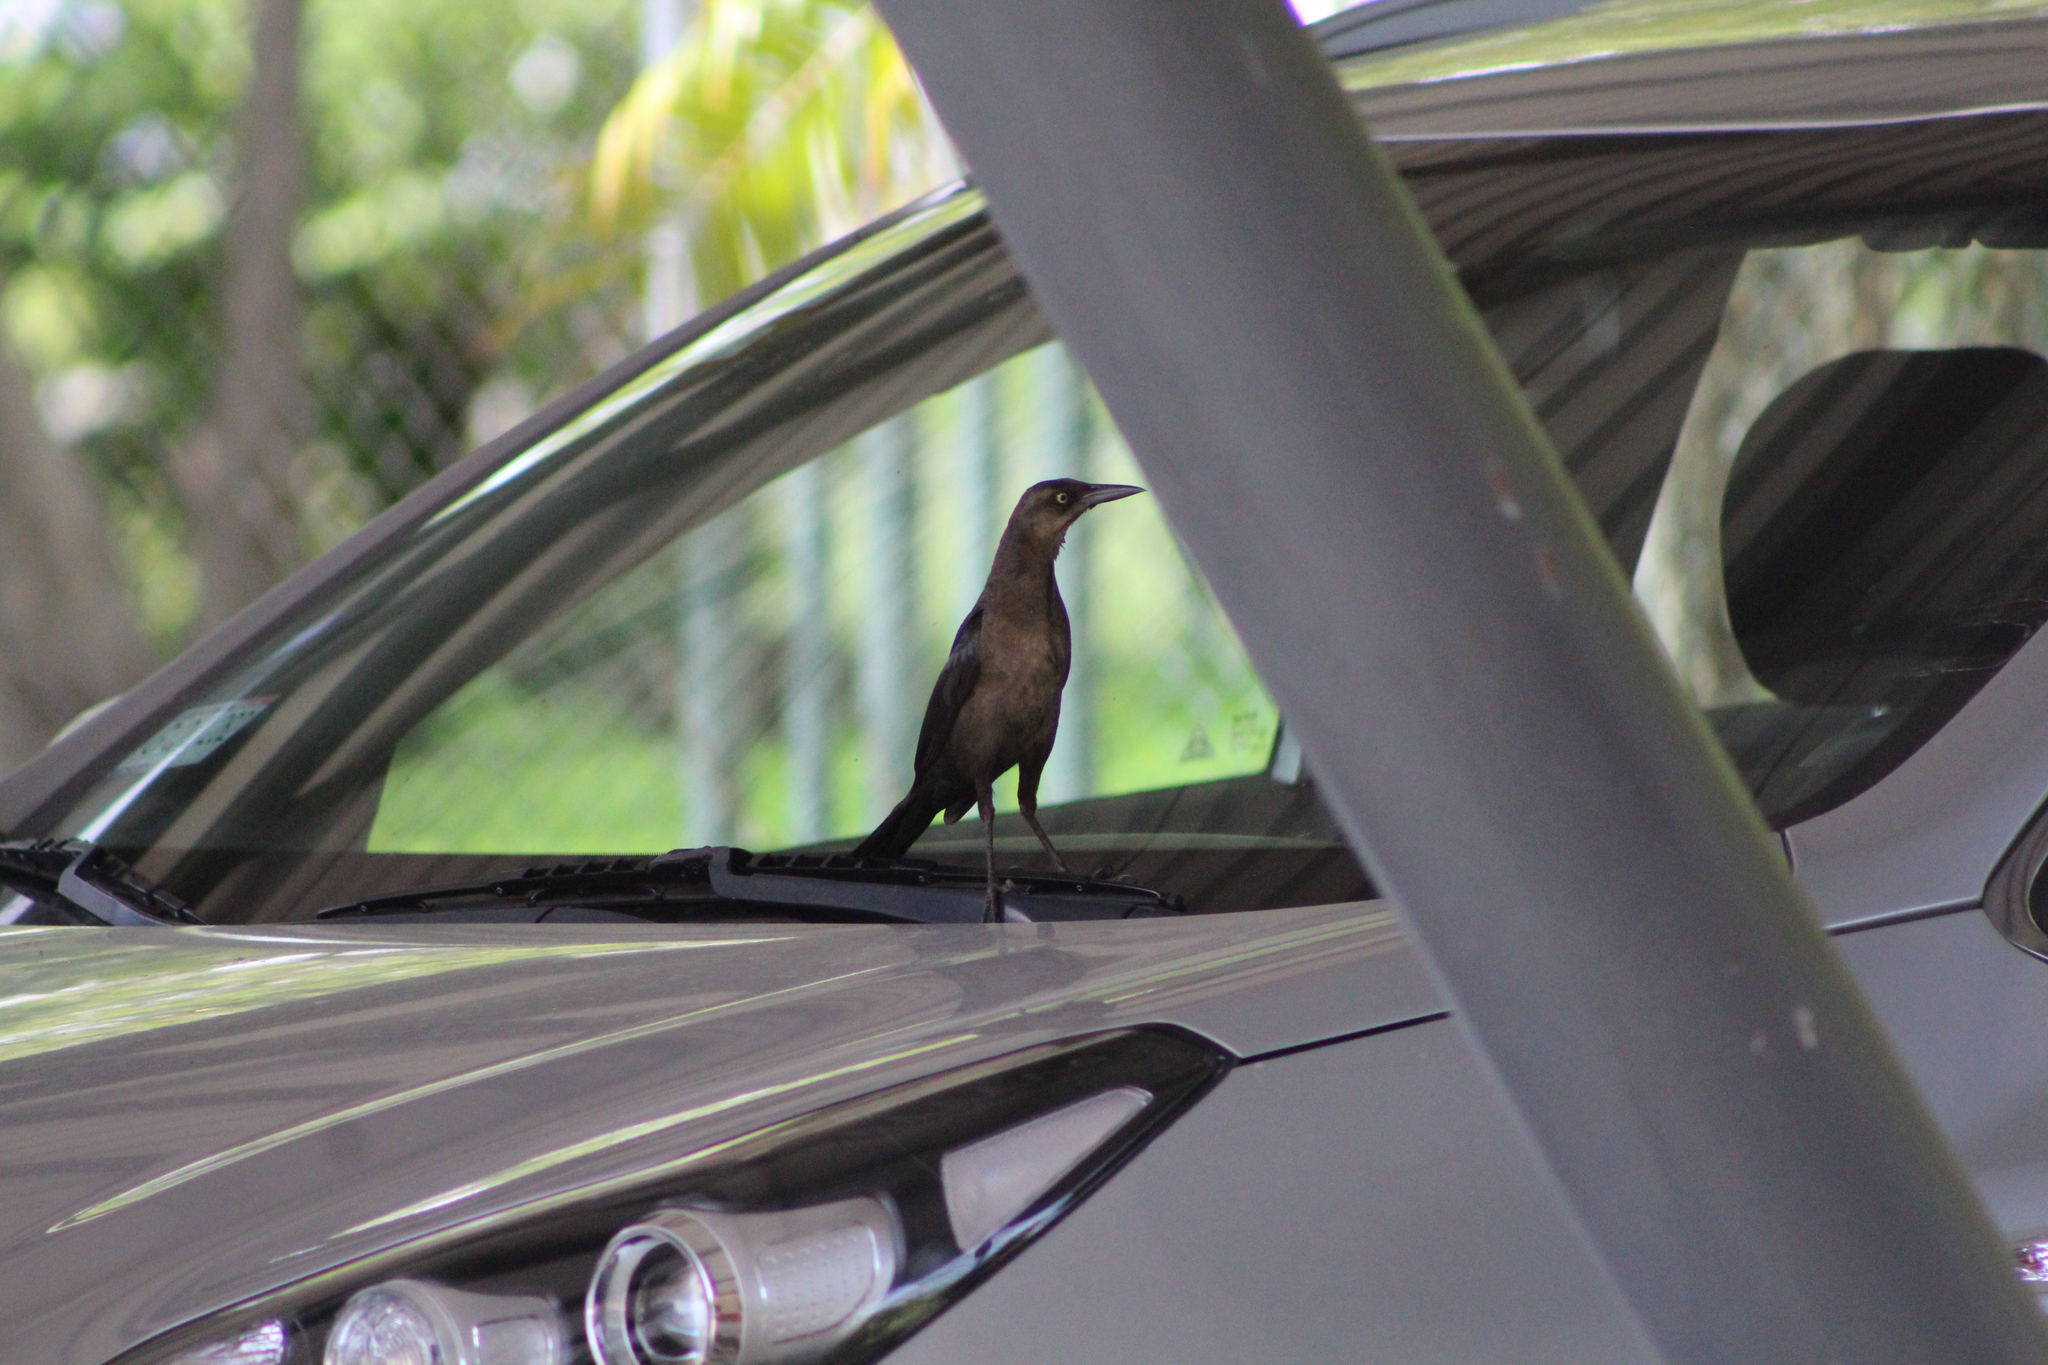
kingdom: Animalia
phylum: Chordata
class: Aves
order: Passeriformes
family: Icteridae
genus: Quiscalus
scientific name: Quiscalus mexicanus
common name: Great-tailed grackle
